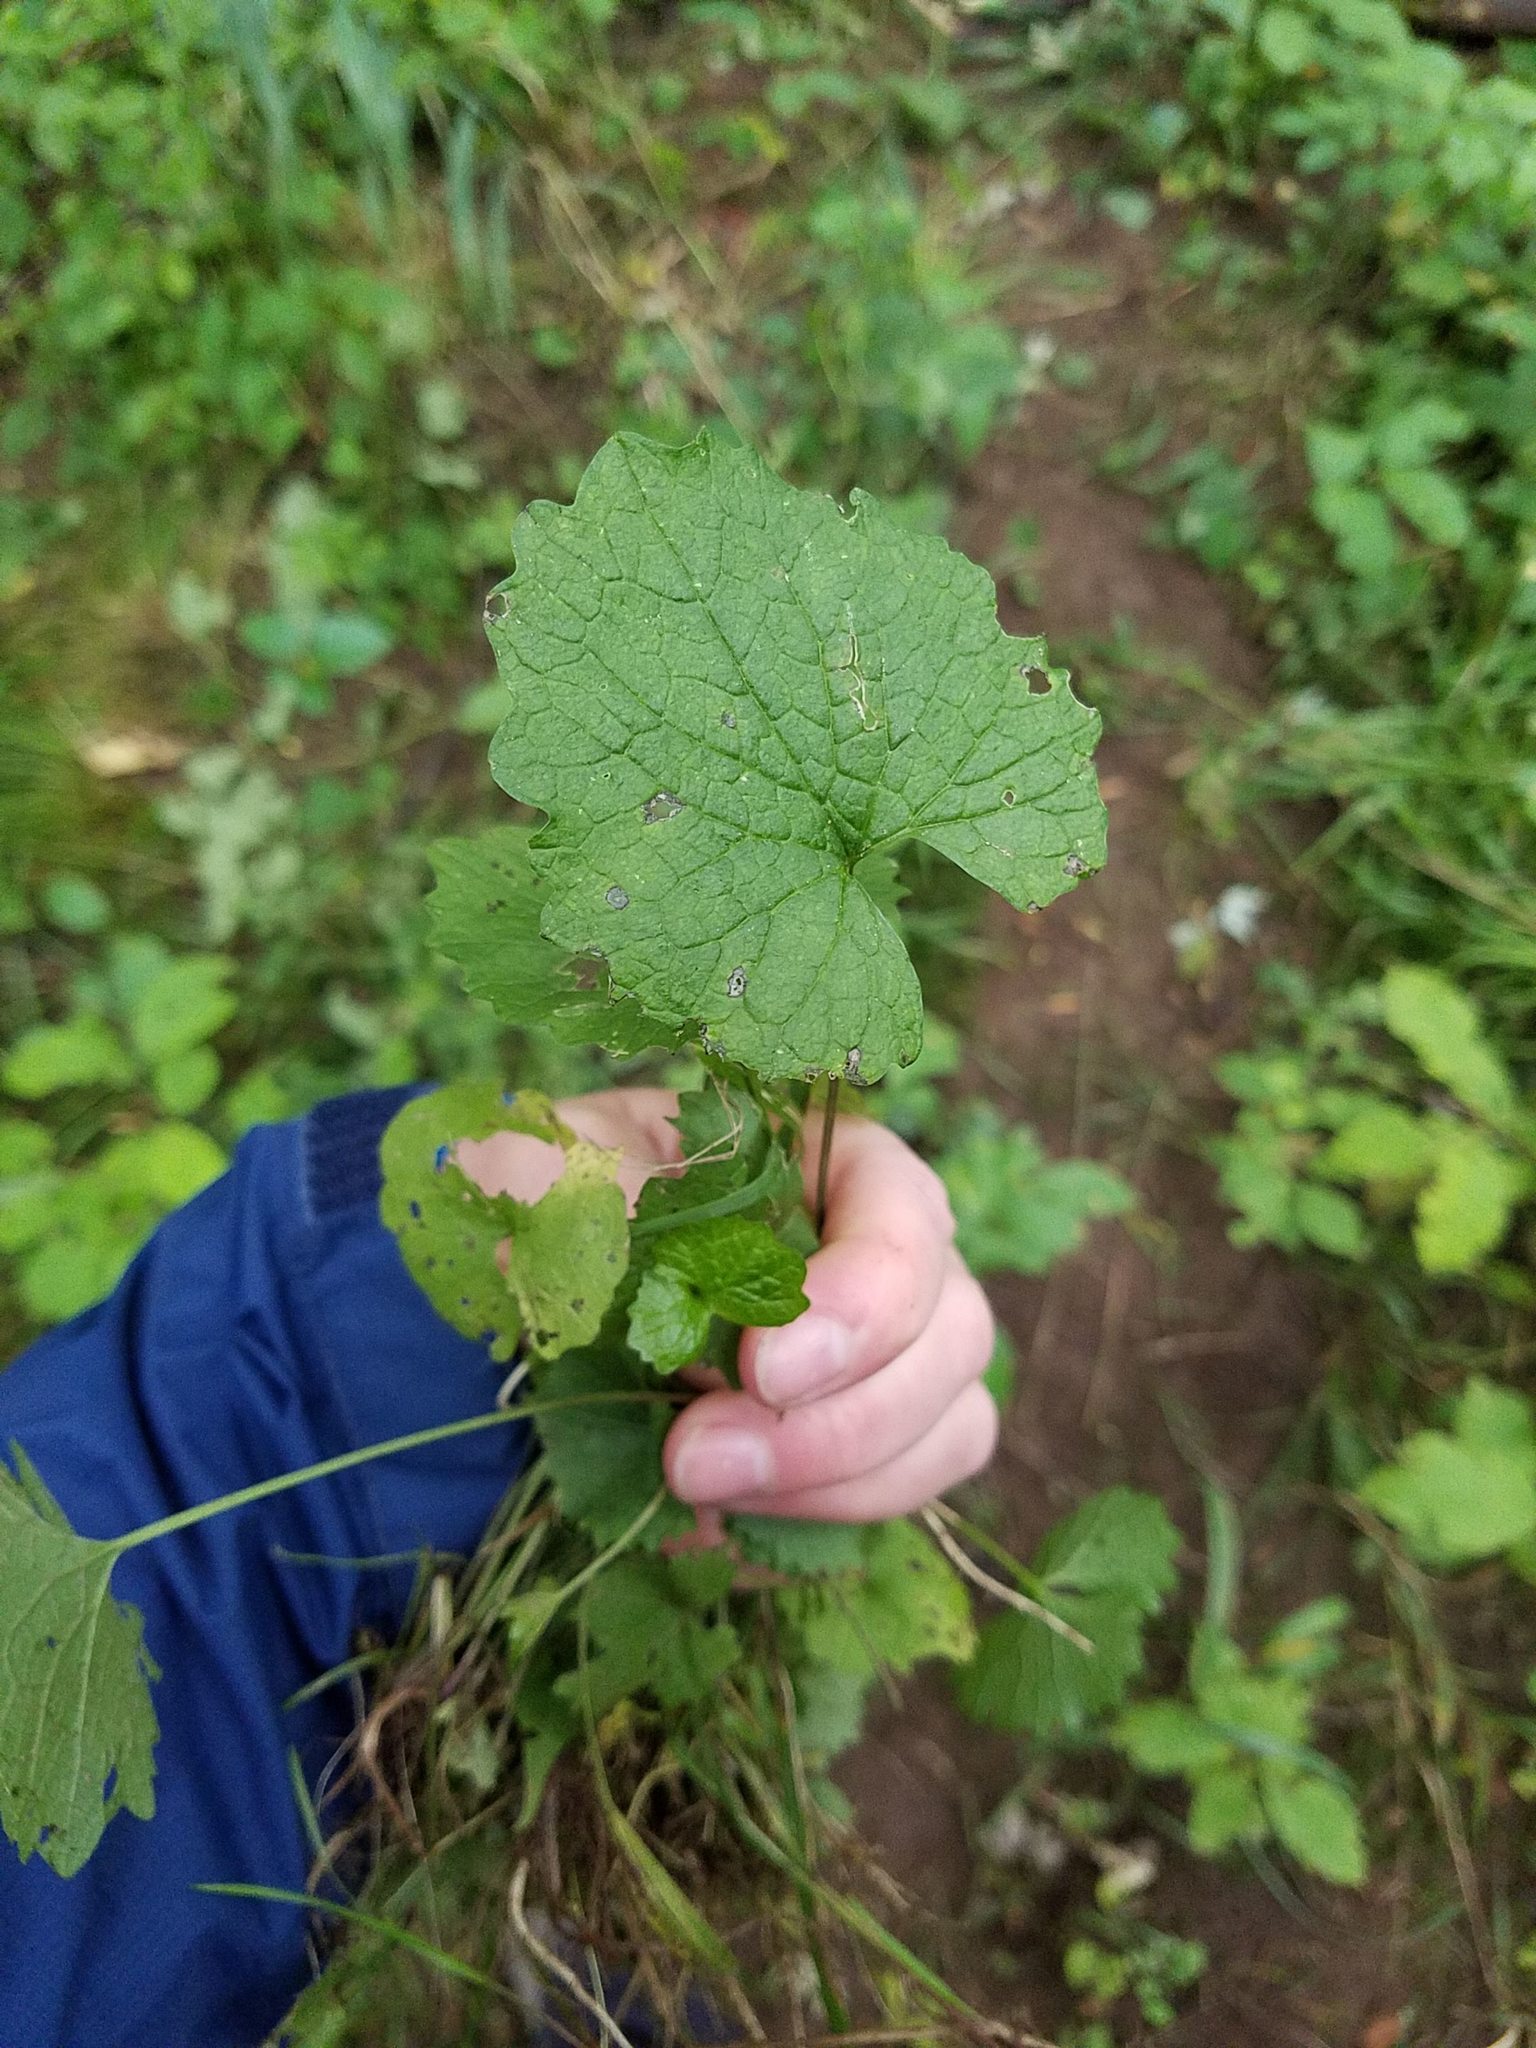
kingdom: Plantae
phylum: Tracheophyta
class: Magnoliopsida
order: Brassicales
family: Brassicaceae
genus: Alliaria
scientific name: Alliaria petiolata
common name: Garlic mustard
